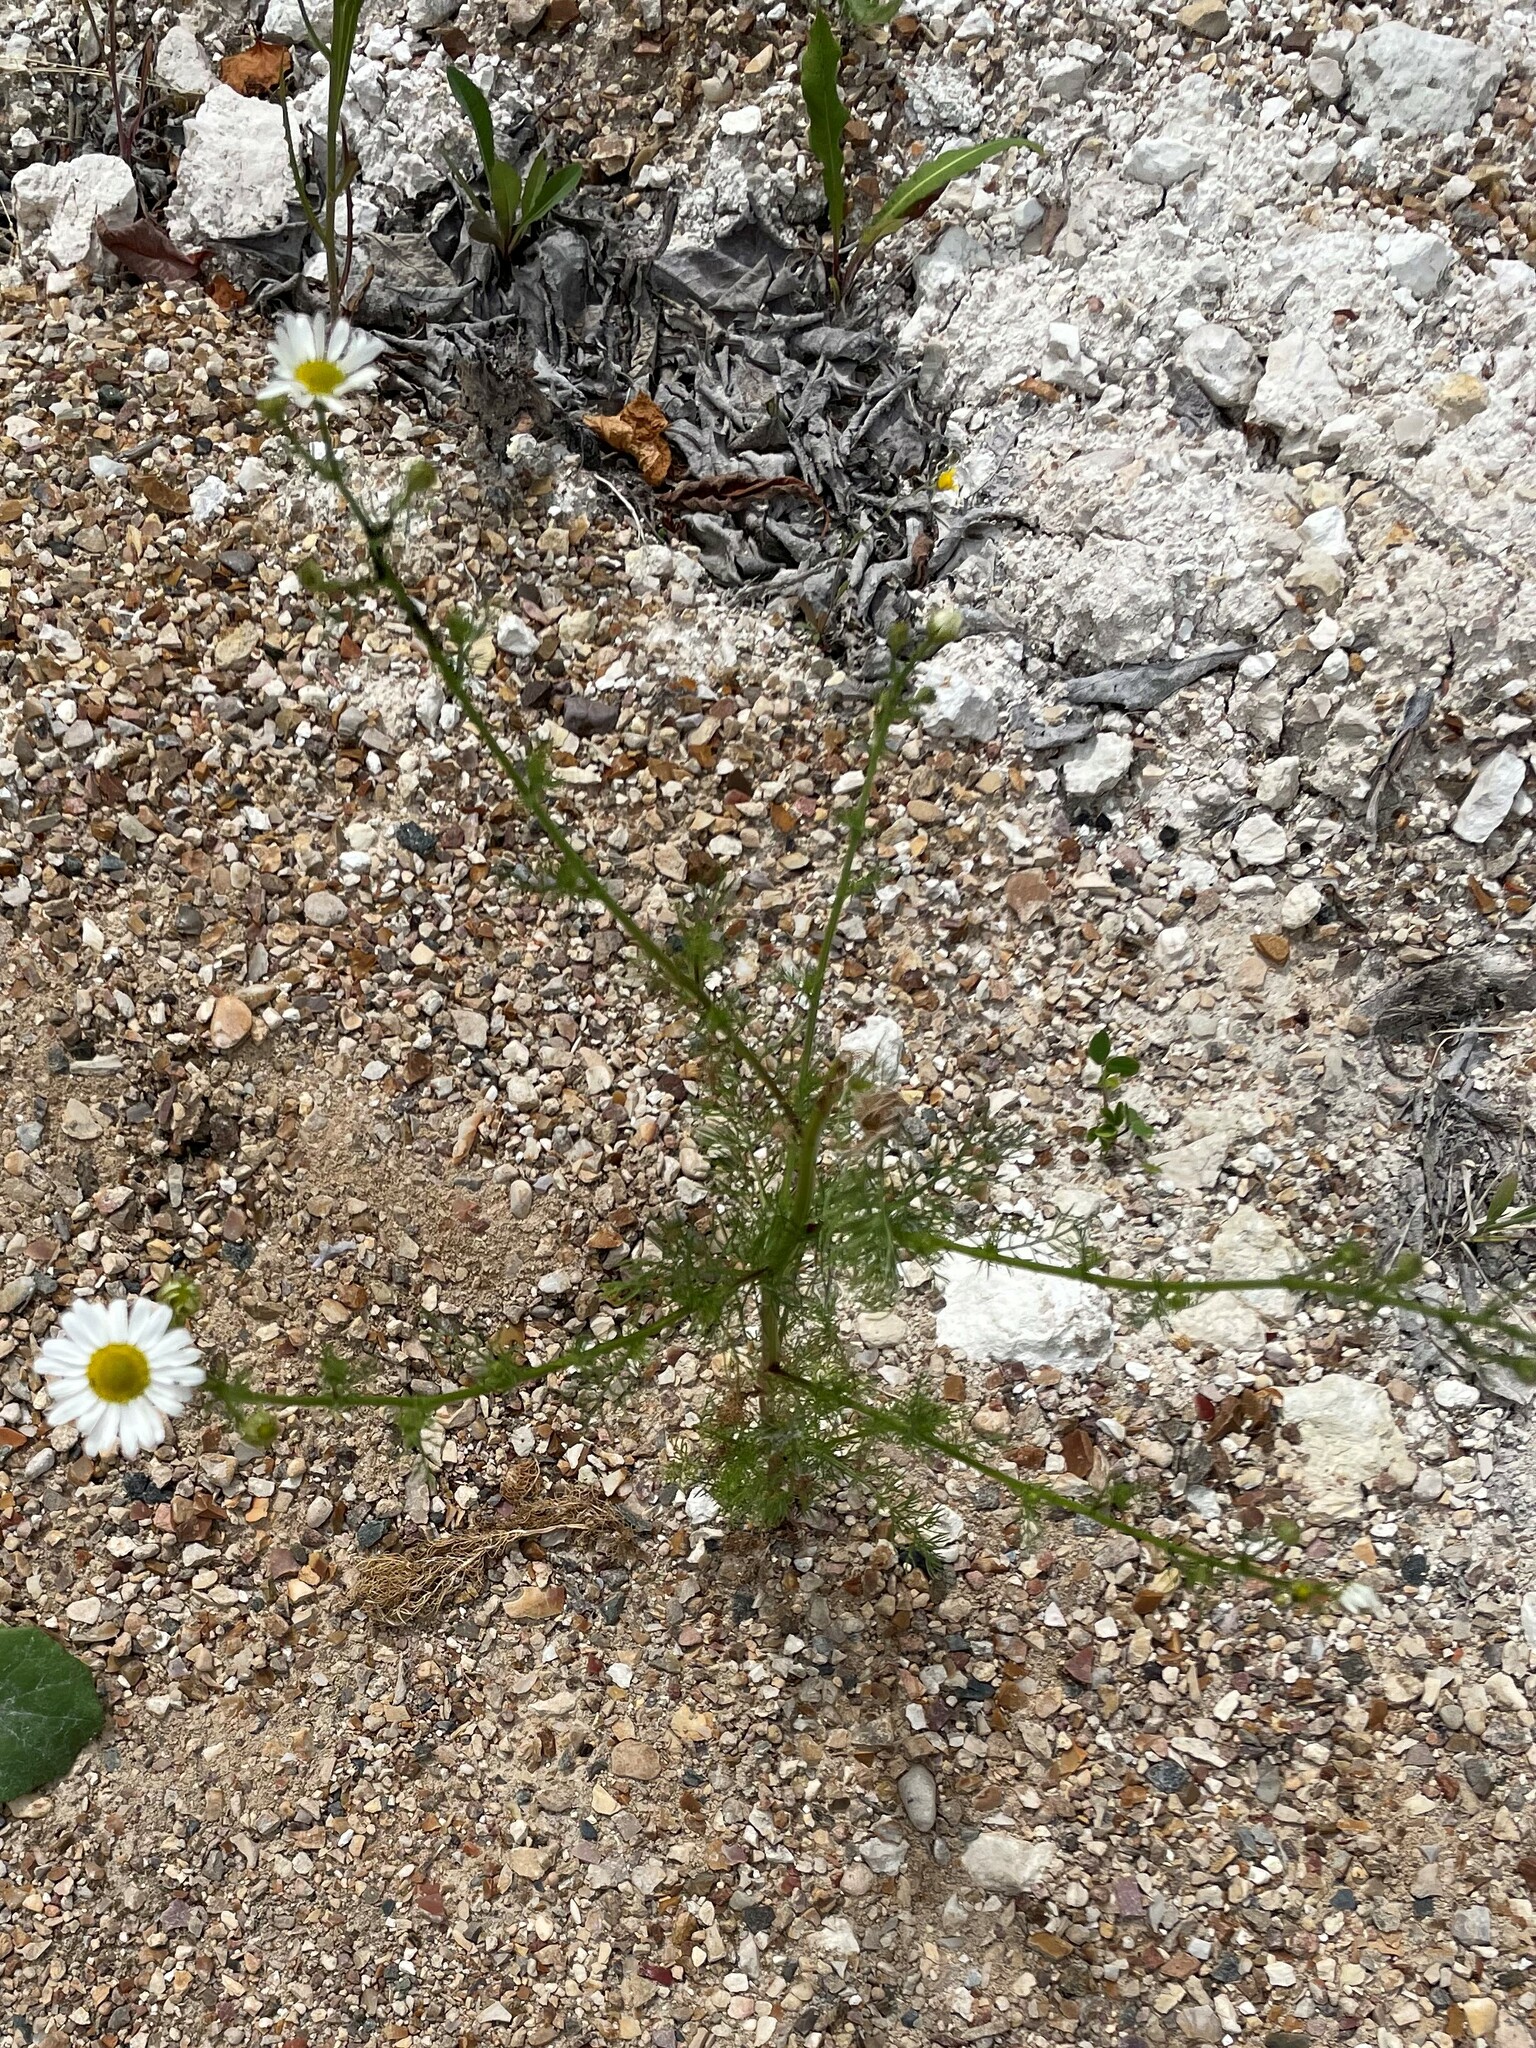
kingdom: Plantae
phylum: Tracheophyta
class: Magnoliopsida
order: Asterales
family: Asteraceae
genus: Tripleurospermum
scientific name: Tripleurospermum inodorum
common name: Scentless mayweed
